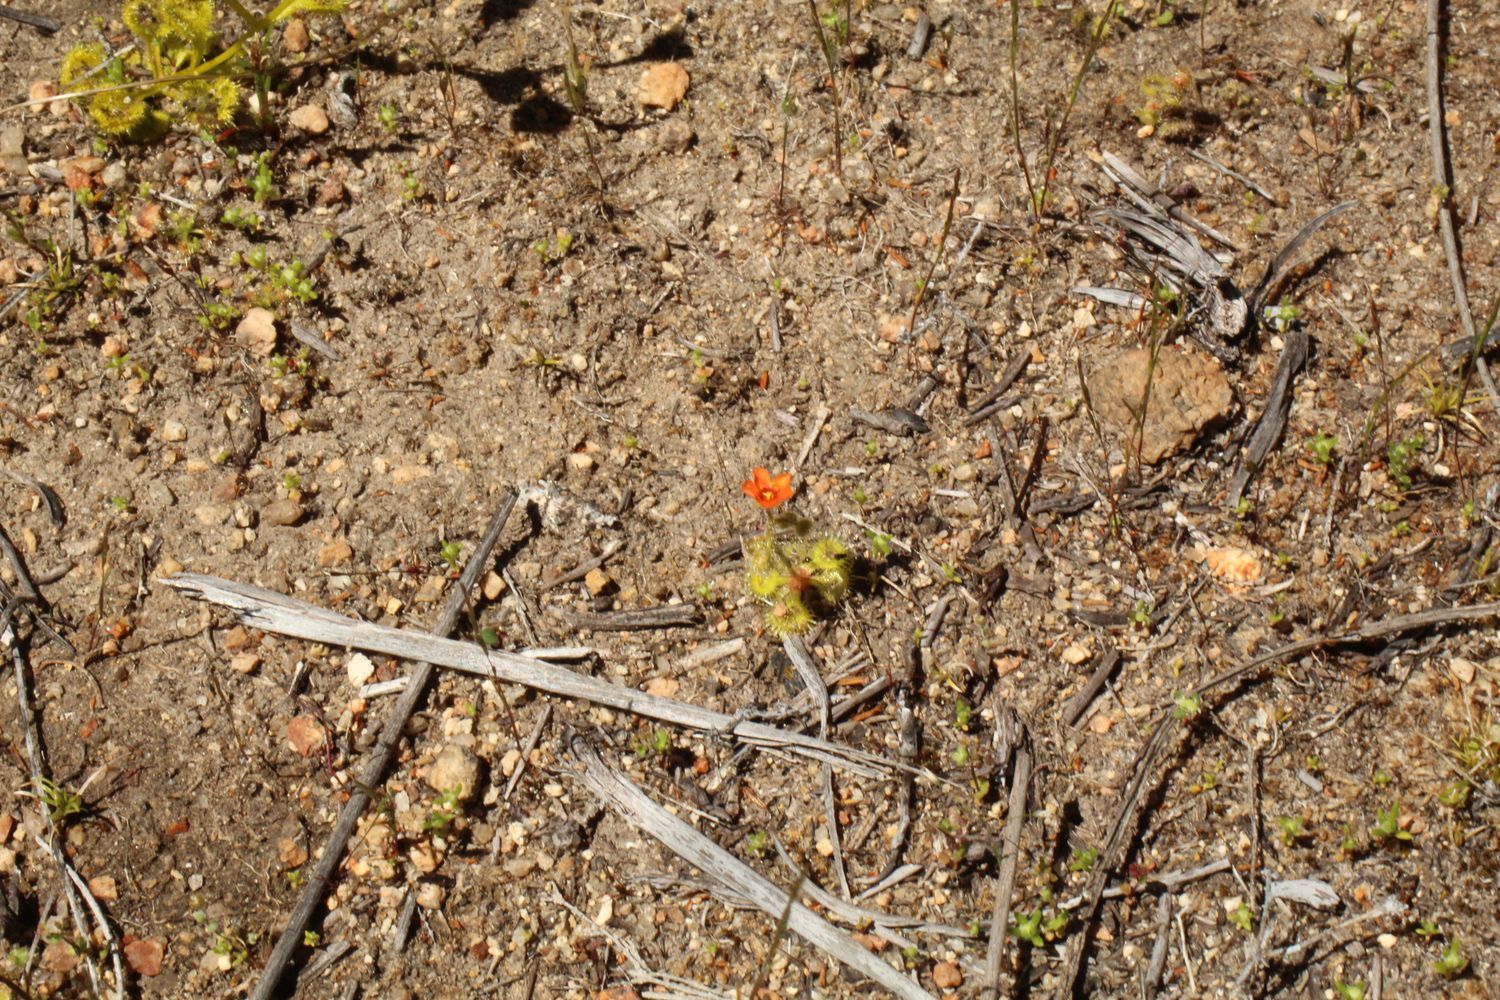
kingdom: Plantae
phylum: Tracheophyta
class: Magnoliopsida
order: Caryophyllales
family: Droseraceae
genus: Drosera
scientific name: Drosera glanduligera
